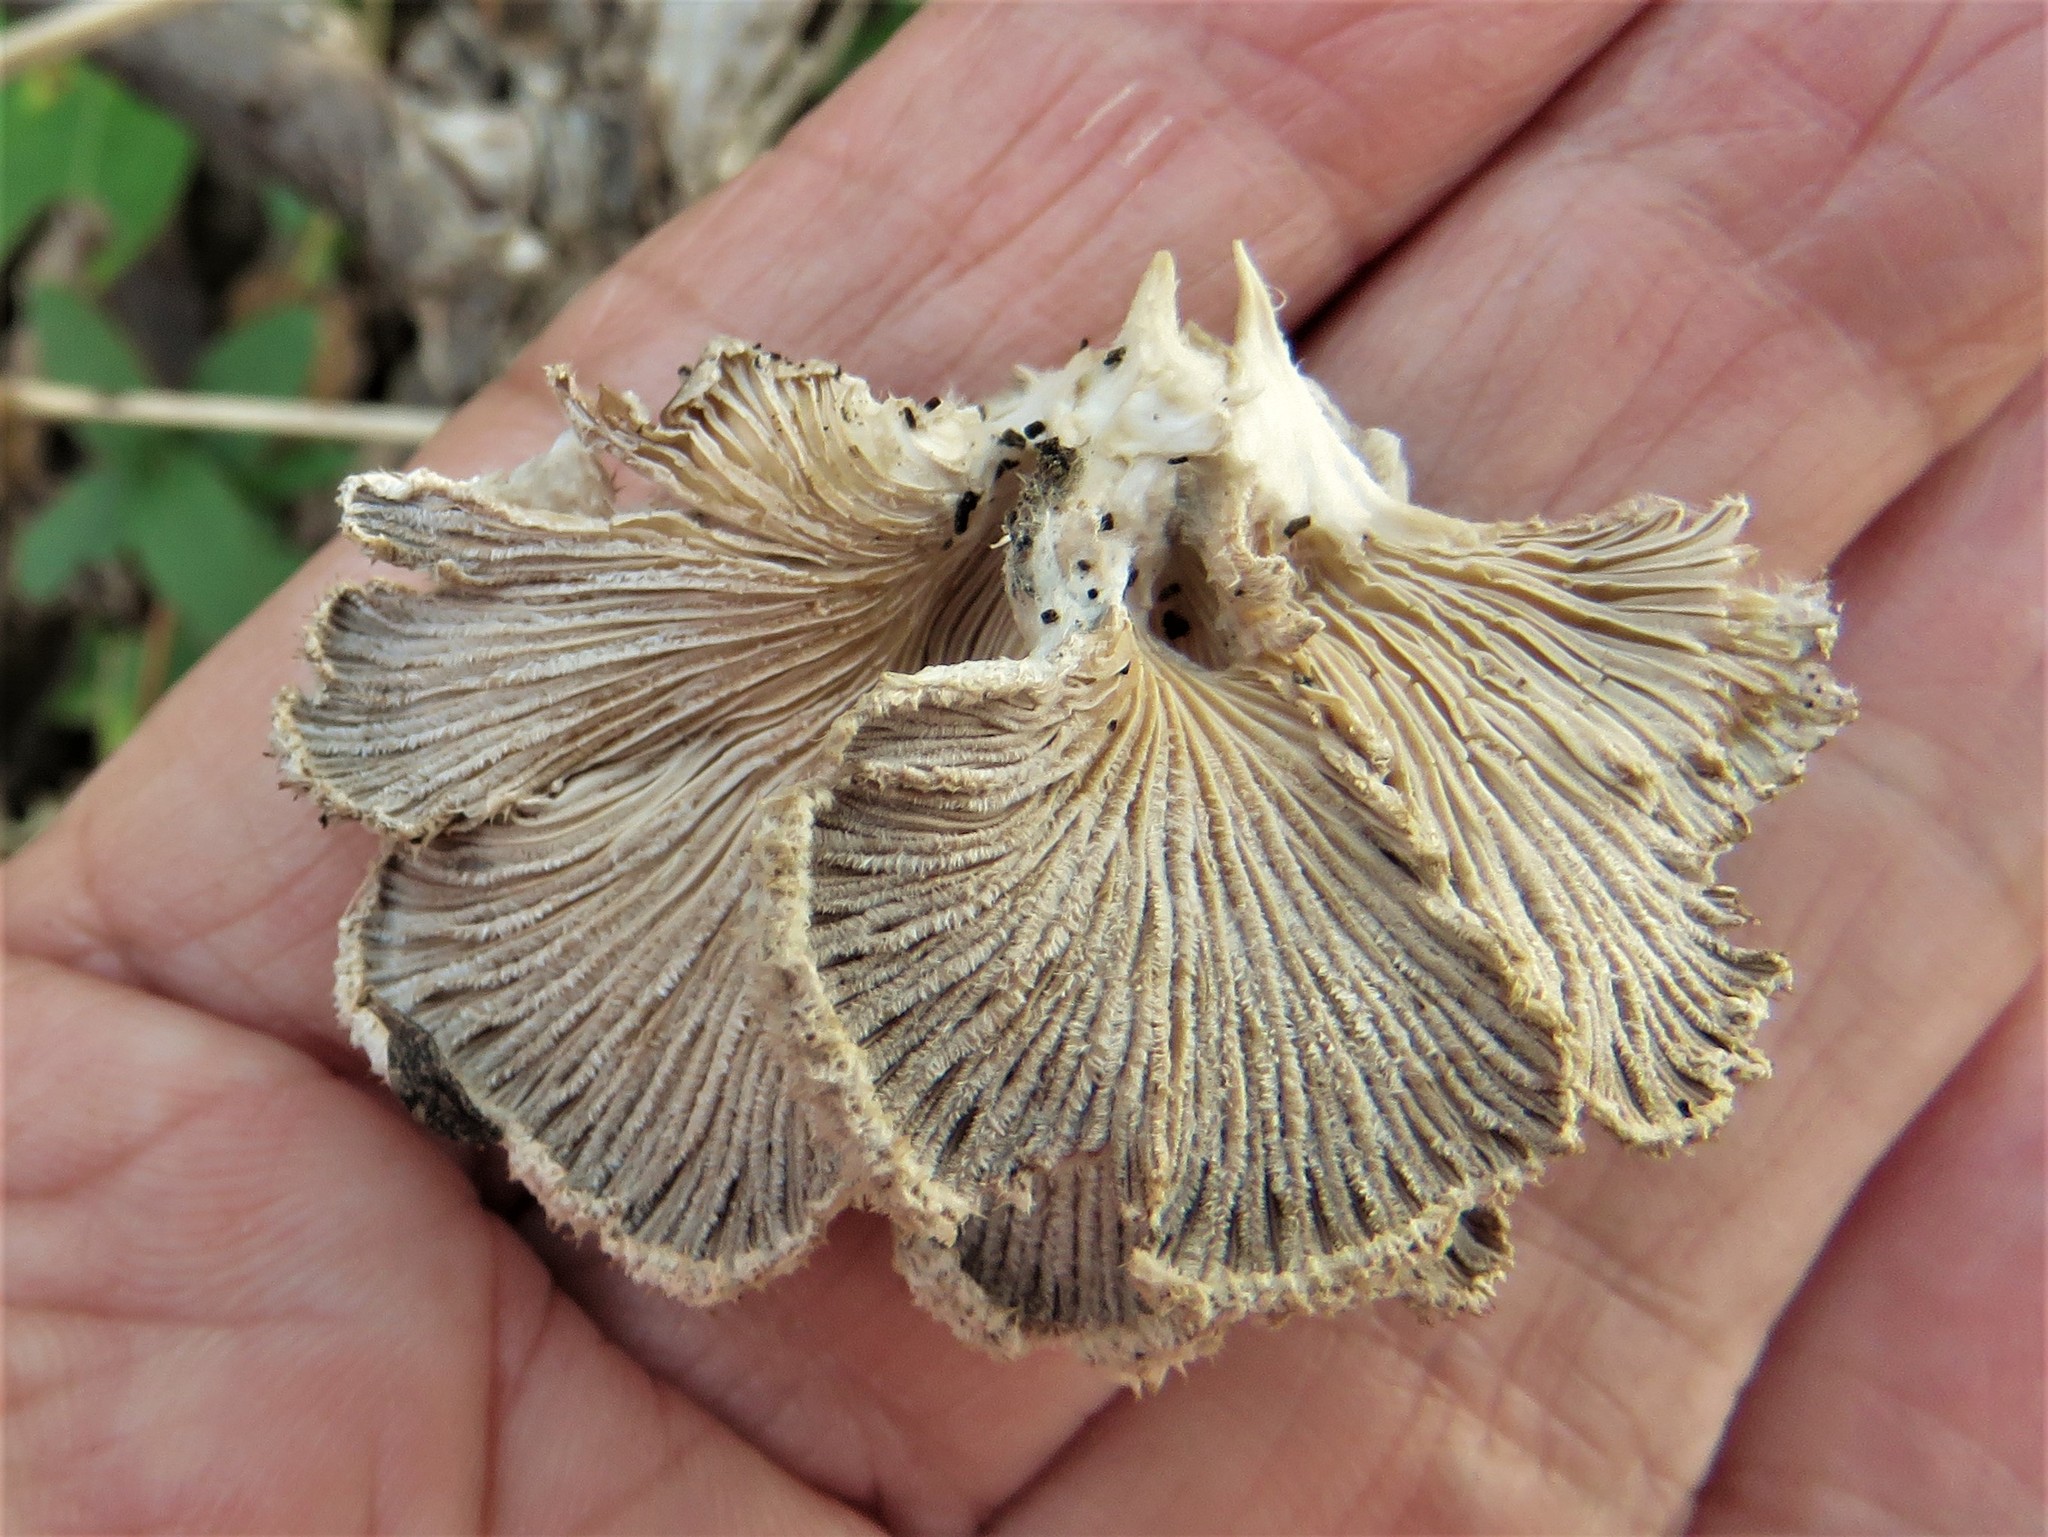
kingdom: Fungi
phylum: Basidiomycota
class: Agaricomycetes
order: Agaricales
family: Schizophyllaceae
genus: Schizophyllum
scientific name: Schizophyllum commune
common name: Common porecrust
